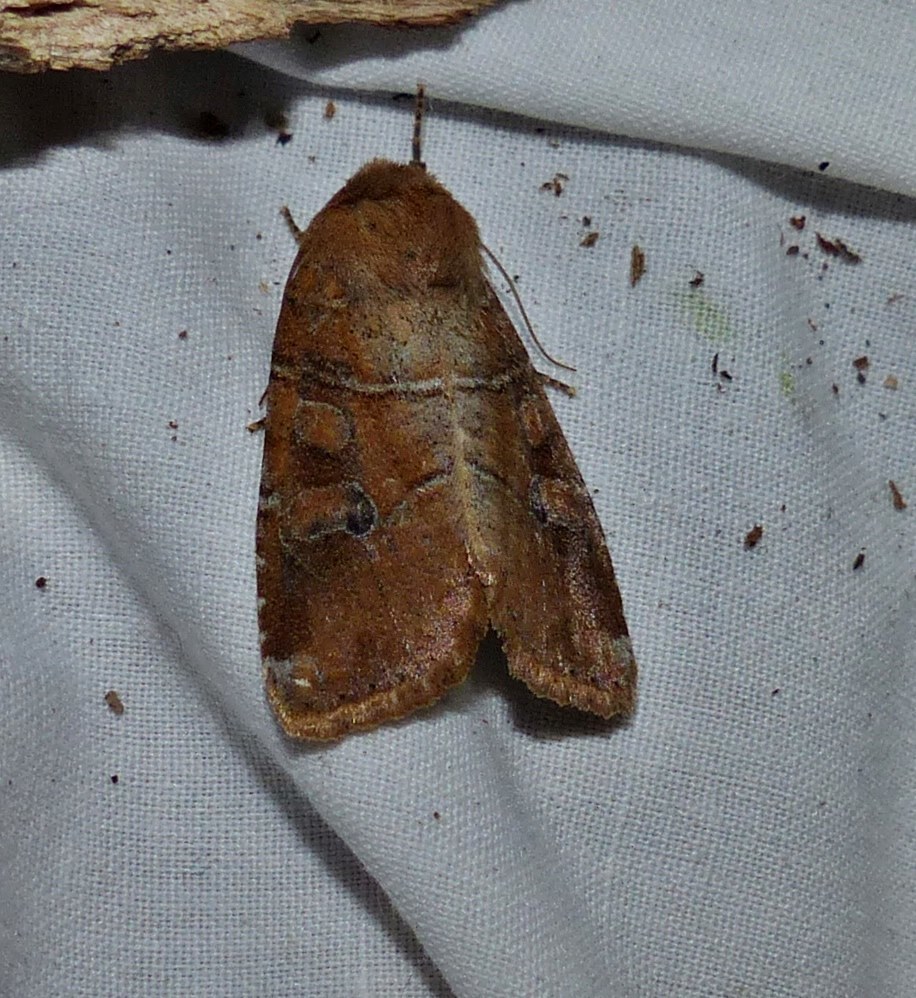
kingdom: Animalia
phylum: Arthropoda
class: Insecta
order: Lepidoptera
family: Noctuidae
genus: Crocigrapha
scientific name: Crocigrapha normani
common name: Norman's quaker
